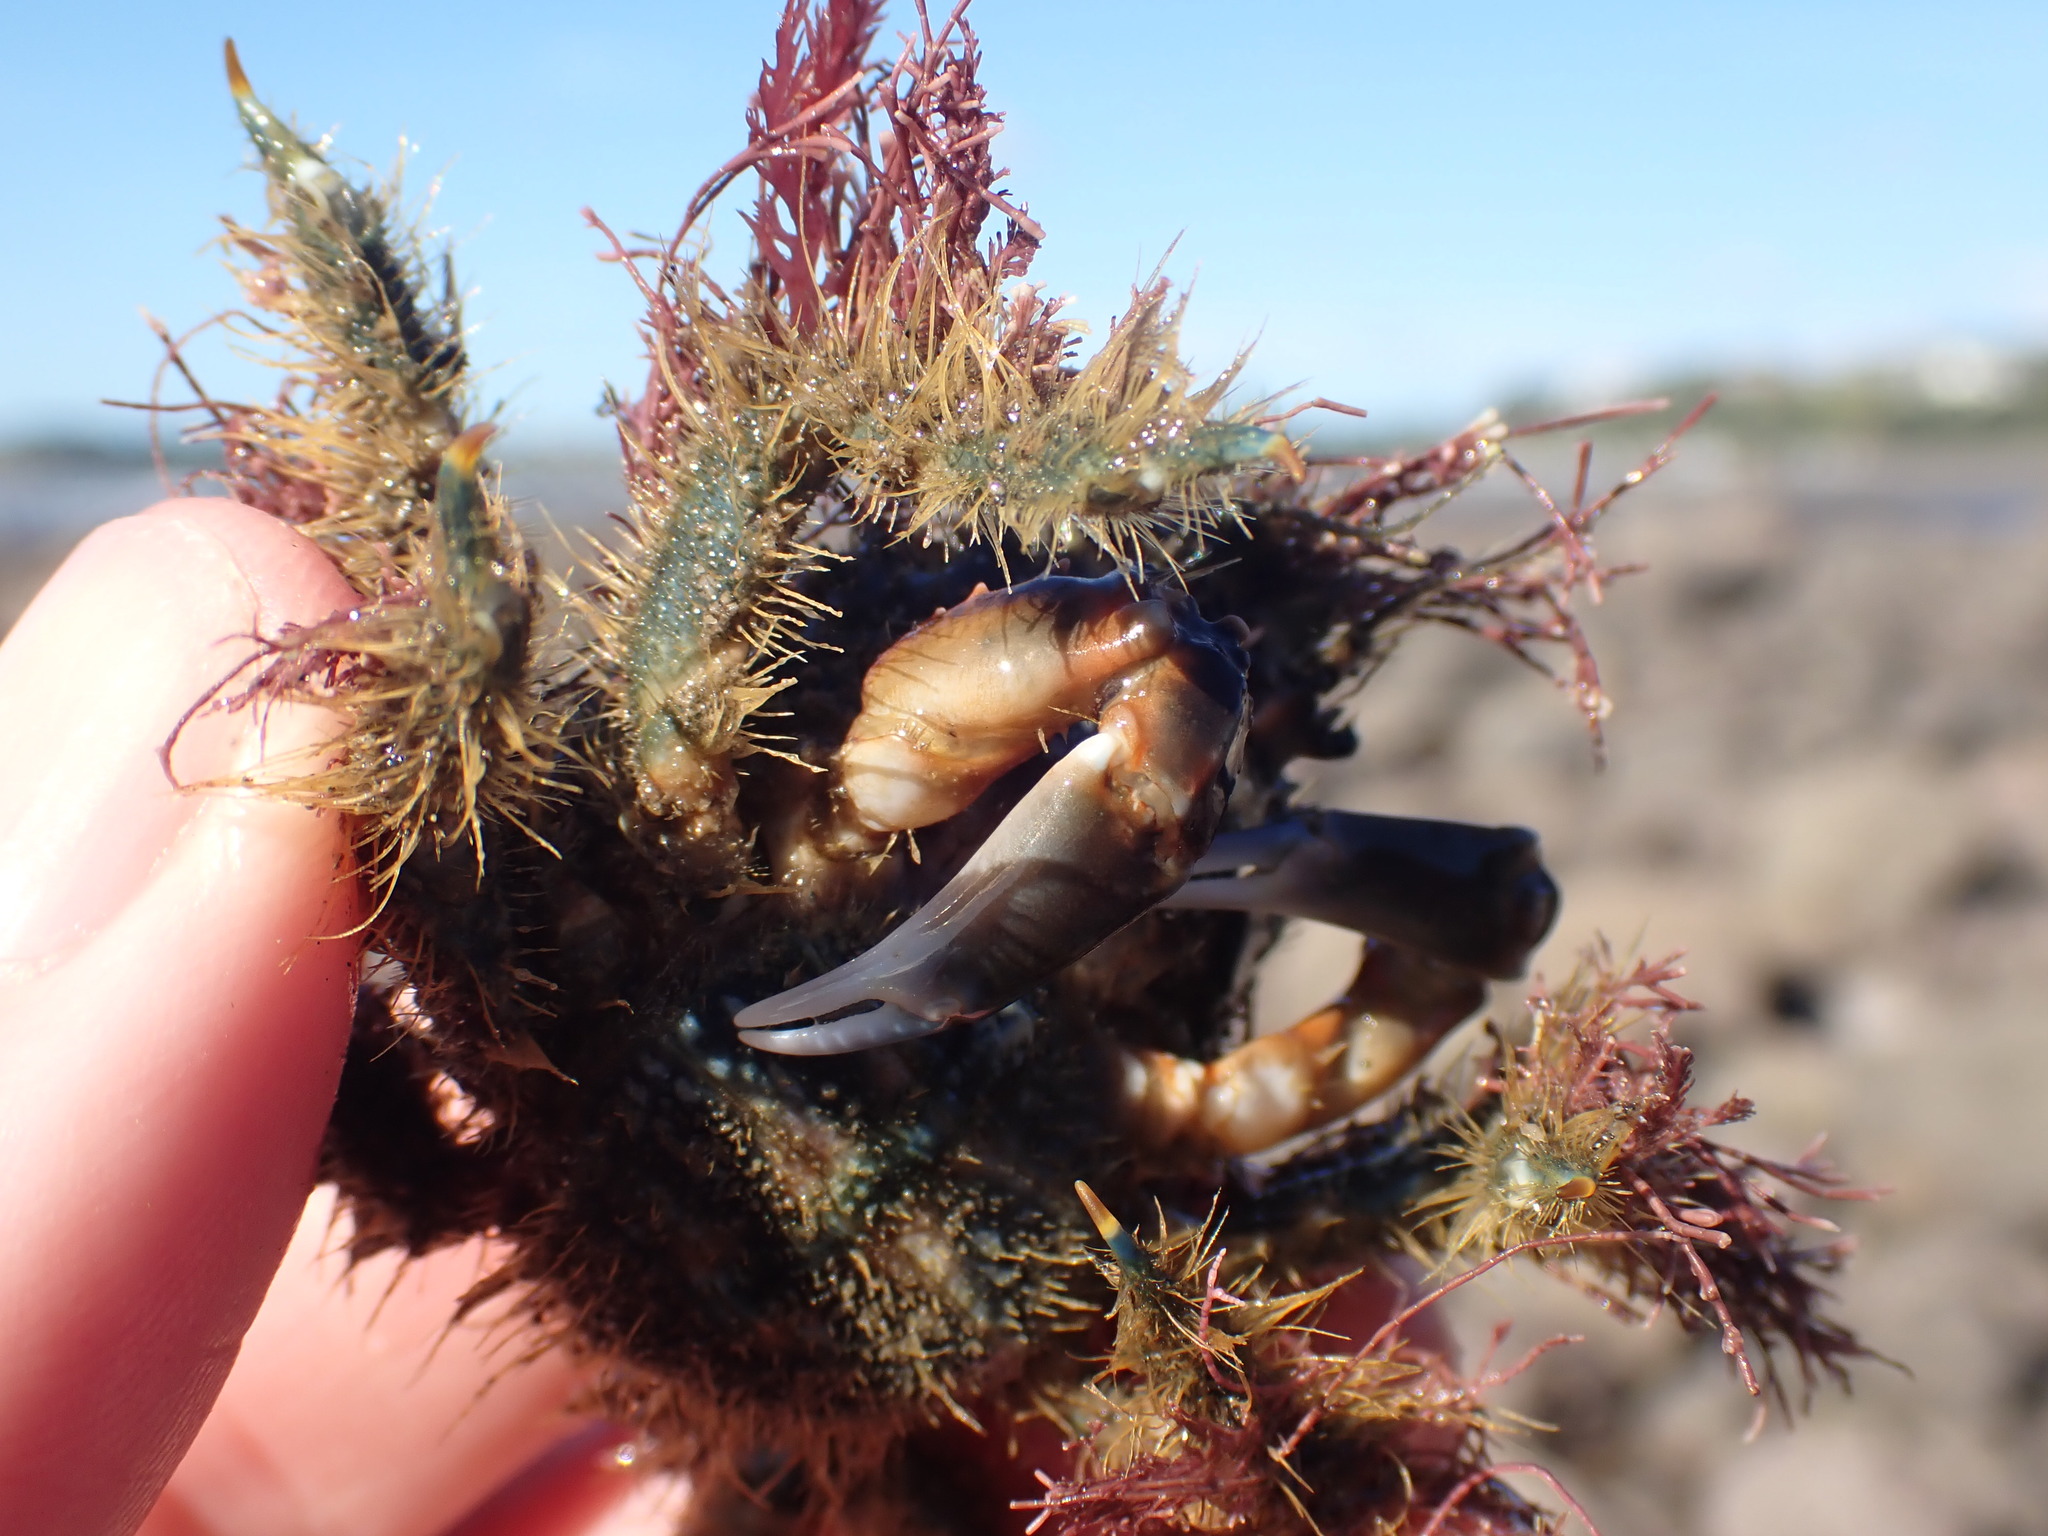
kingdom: Animalia
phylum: Arthropoda
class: Malacostraca
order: Decapoda
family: Majidae
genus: Notomithrax
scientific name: Notomithrax ursus
